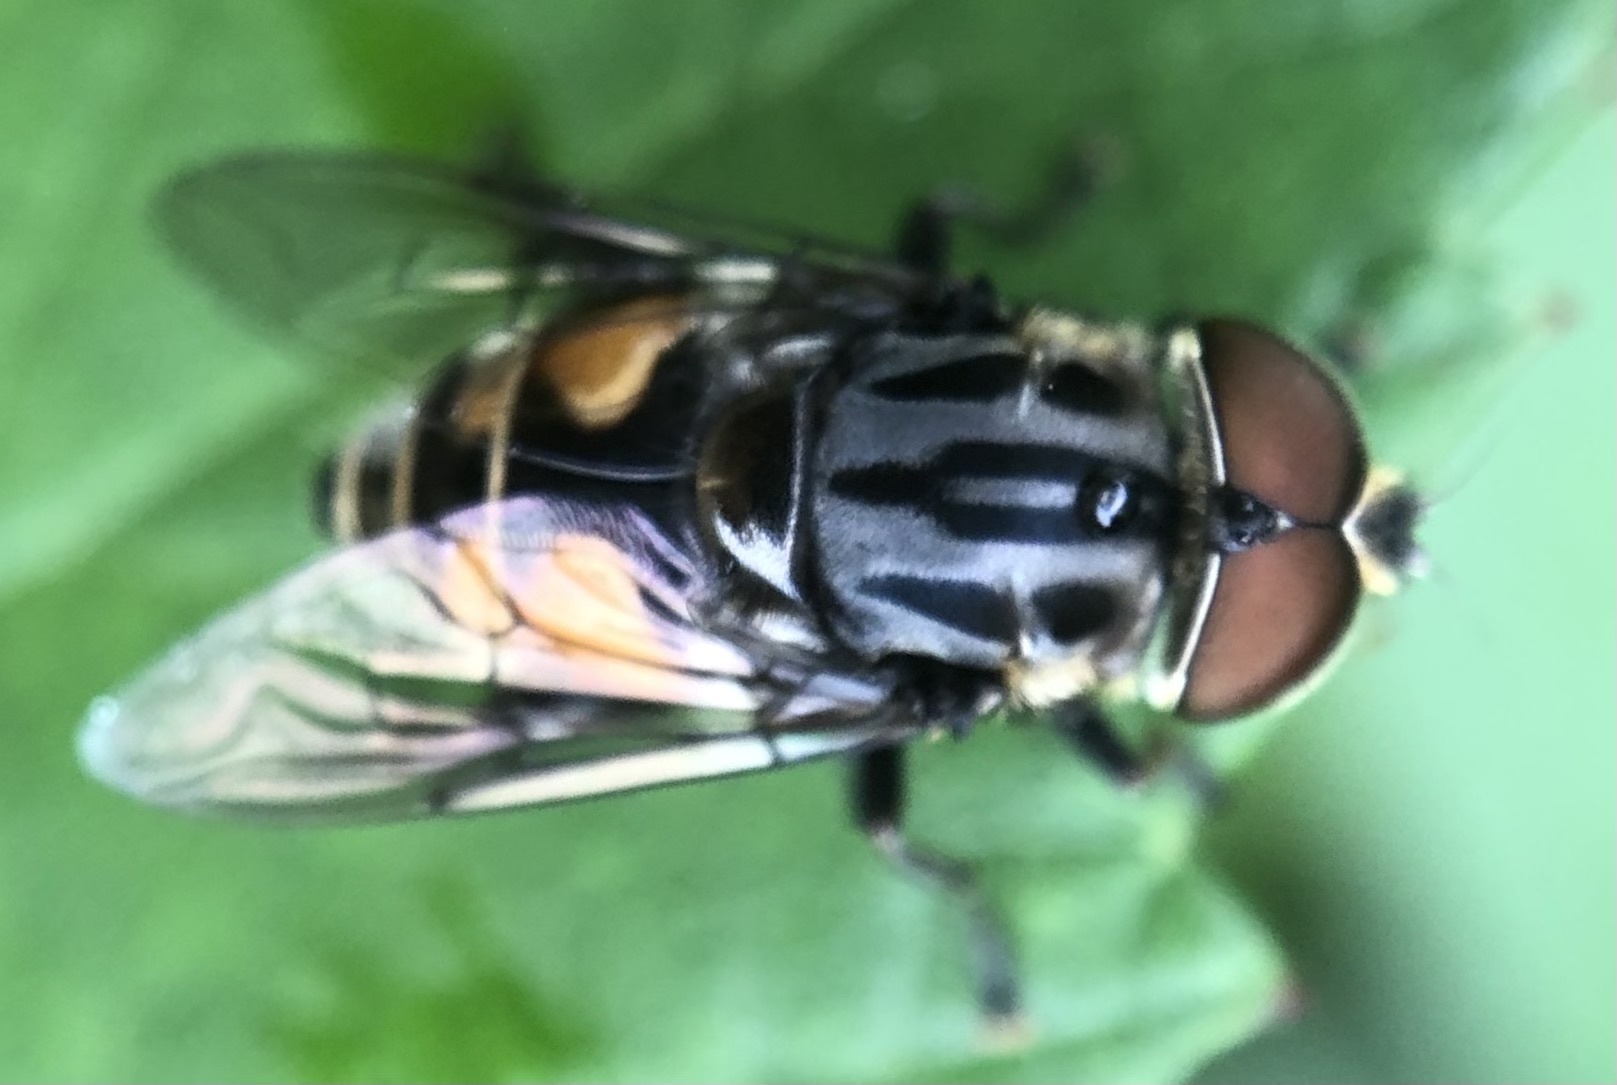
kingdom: Animalia
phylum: Arthropoda
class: Insecta
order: Diptera
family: Syrphidae
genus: Palpada
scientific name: Palpada furcata
